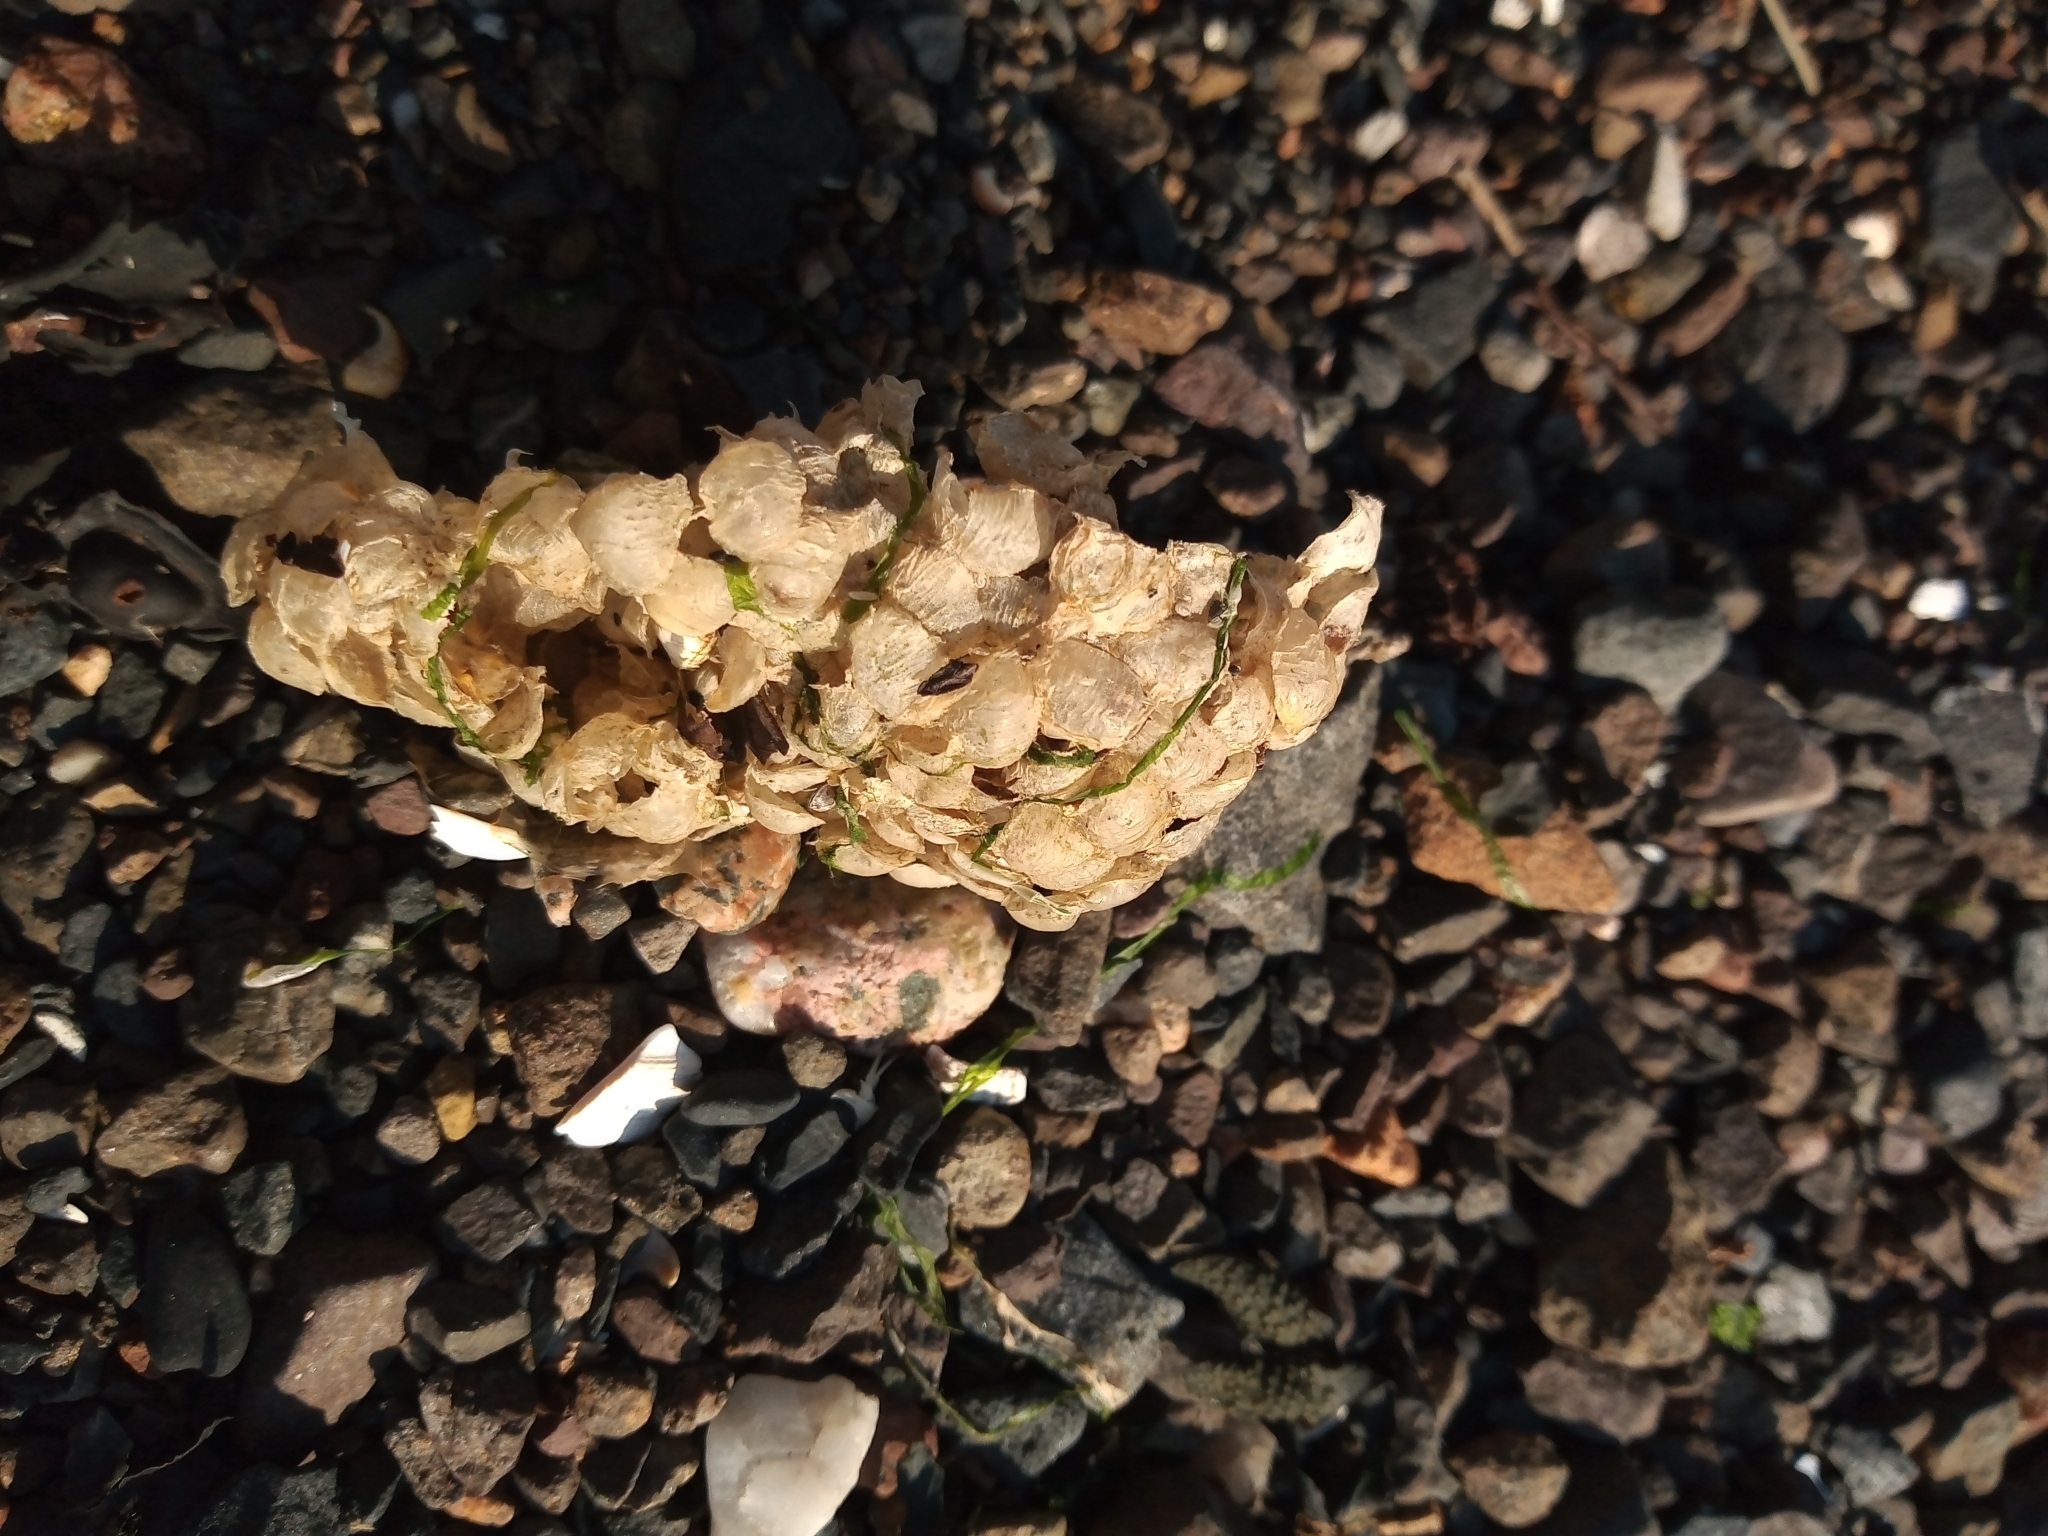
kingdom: Animalia
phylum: Mollusca
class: Gastropoda
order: Neogastropoda
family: Buccinidae
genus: Buccinum
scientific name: Buccinum undatum
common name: Common whelk
